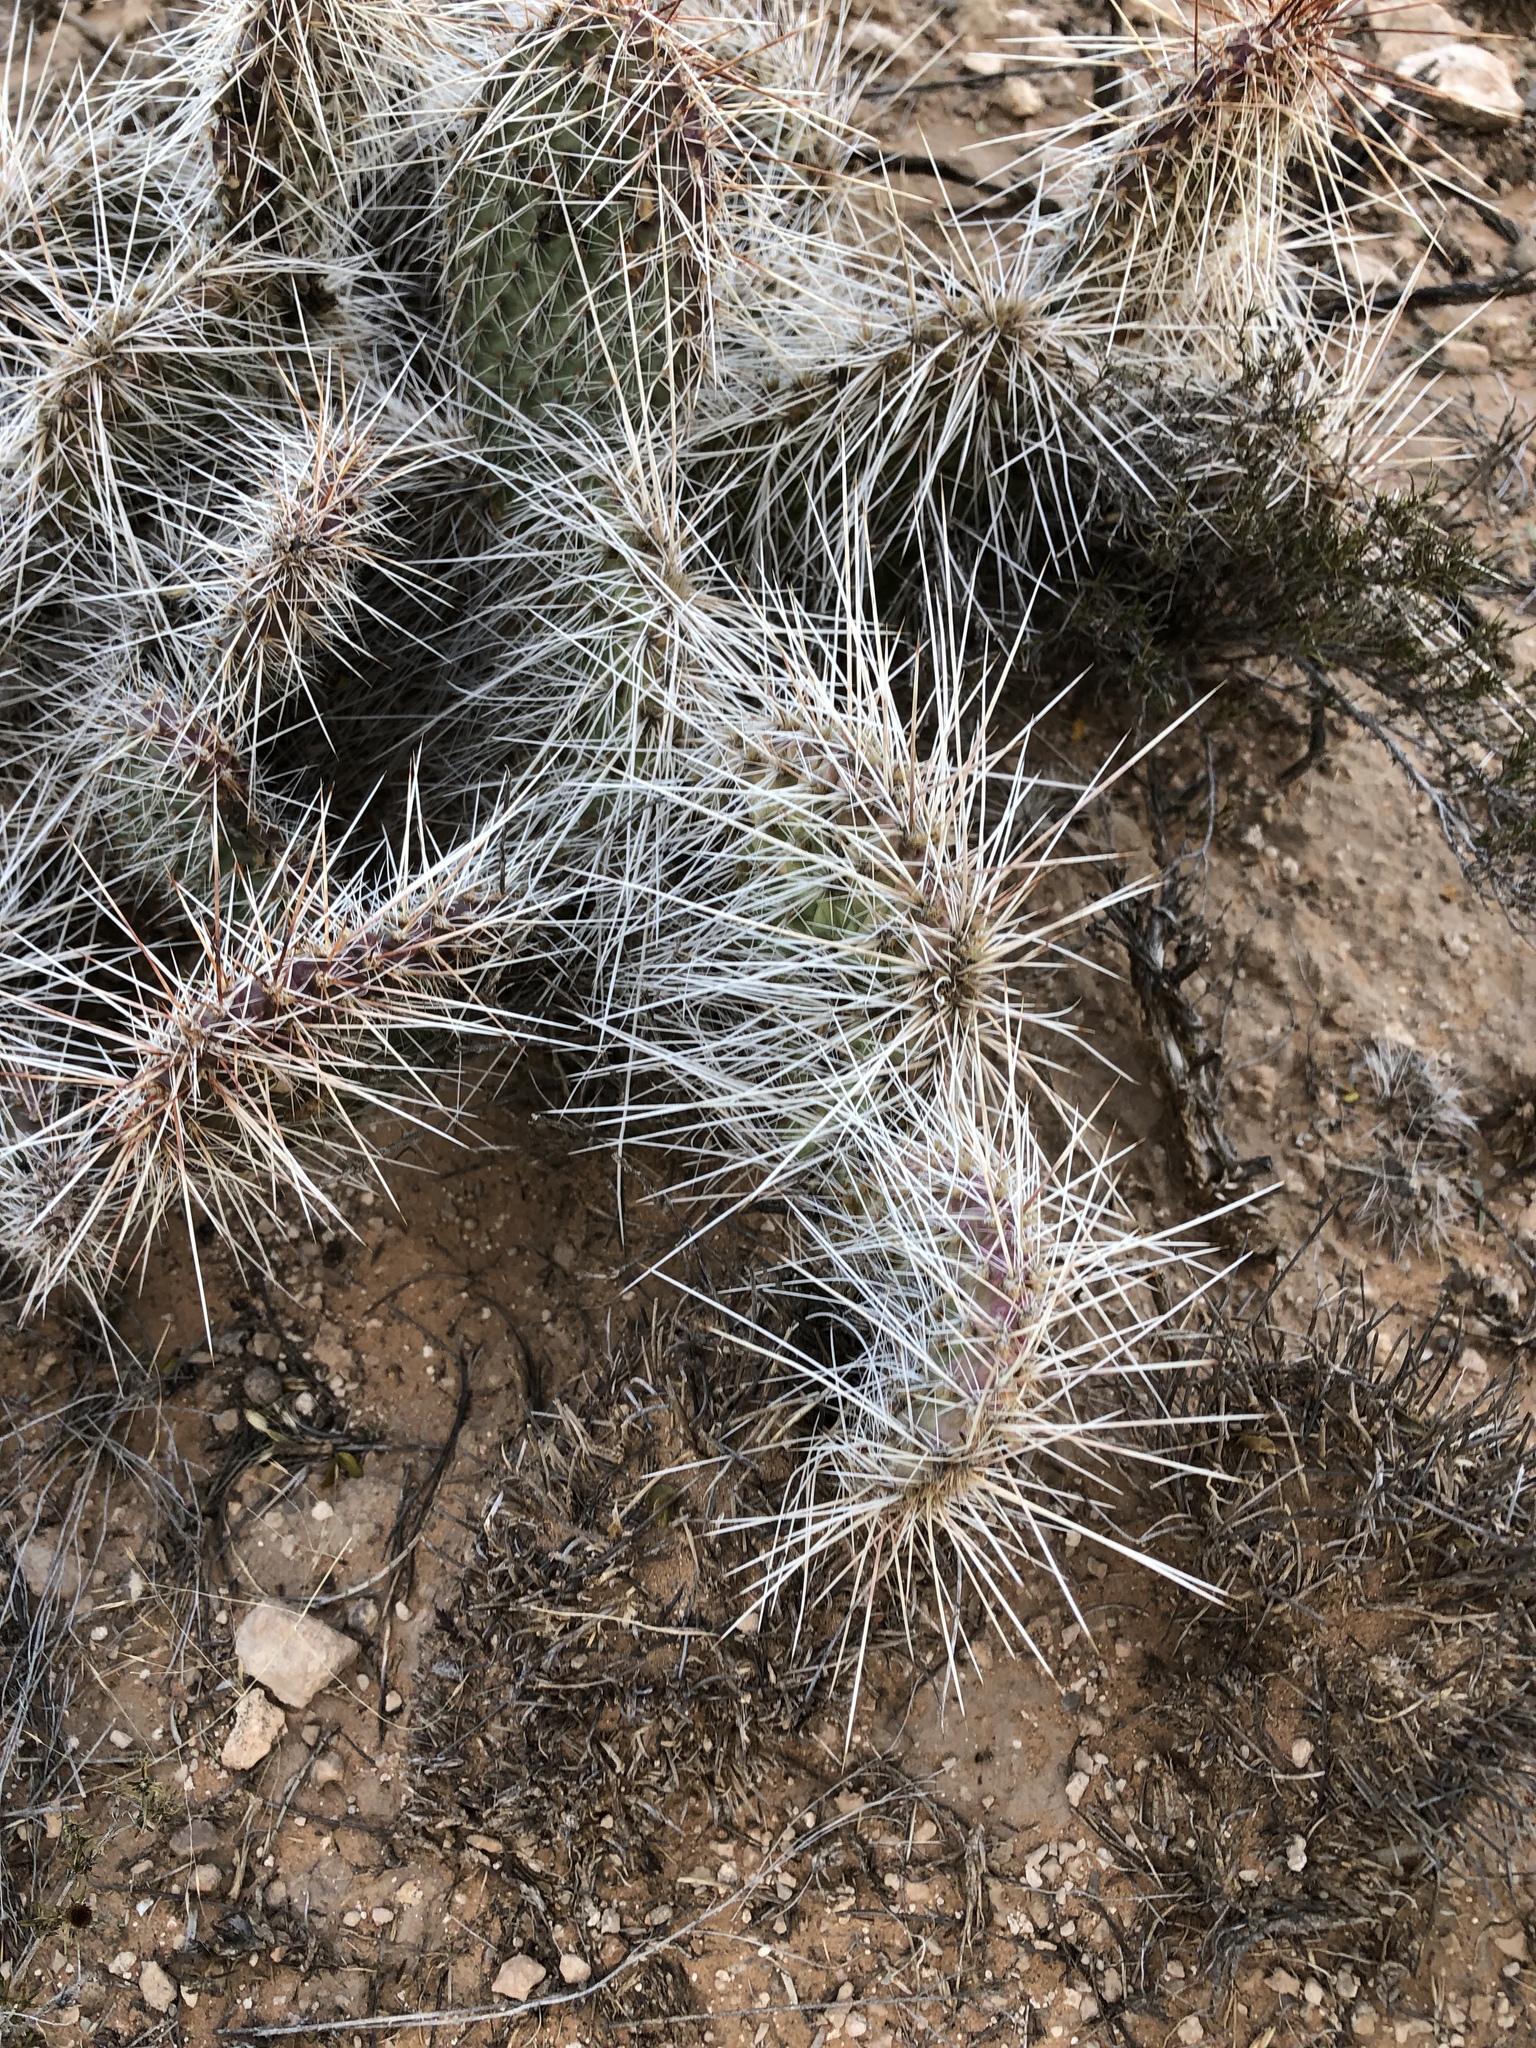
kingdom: Plantae
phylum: Tracheophyta
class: Magnoliopsida
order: Caryophyllales
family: Cactaceae
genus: Opuntia
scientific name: Opuntia polyacantha
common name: Plains prickly-pear
